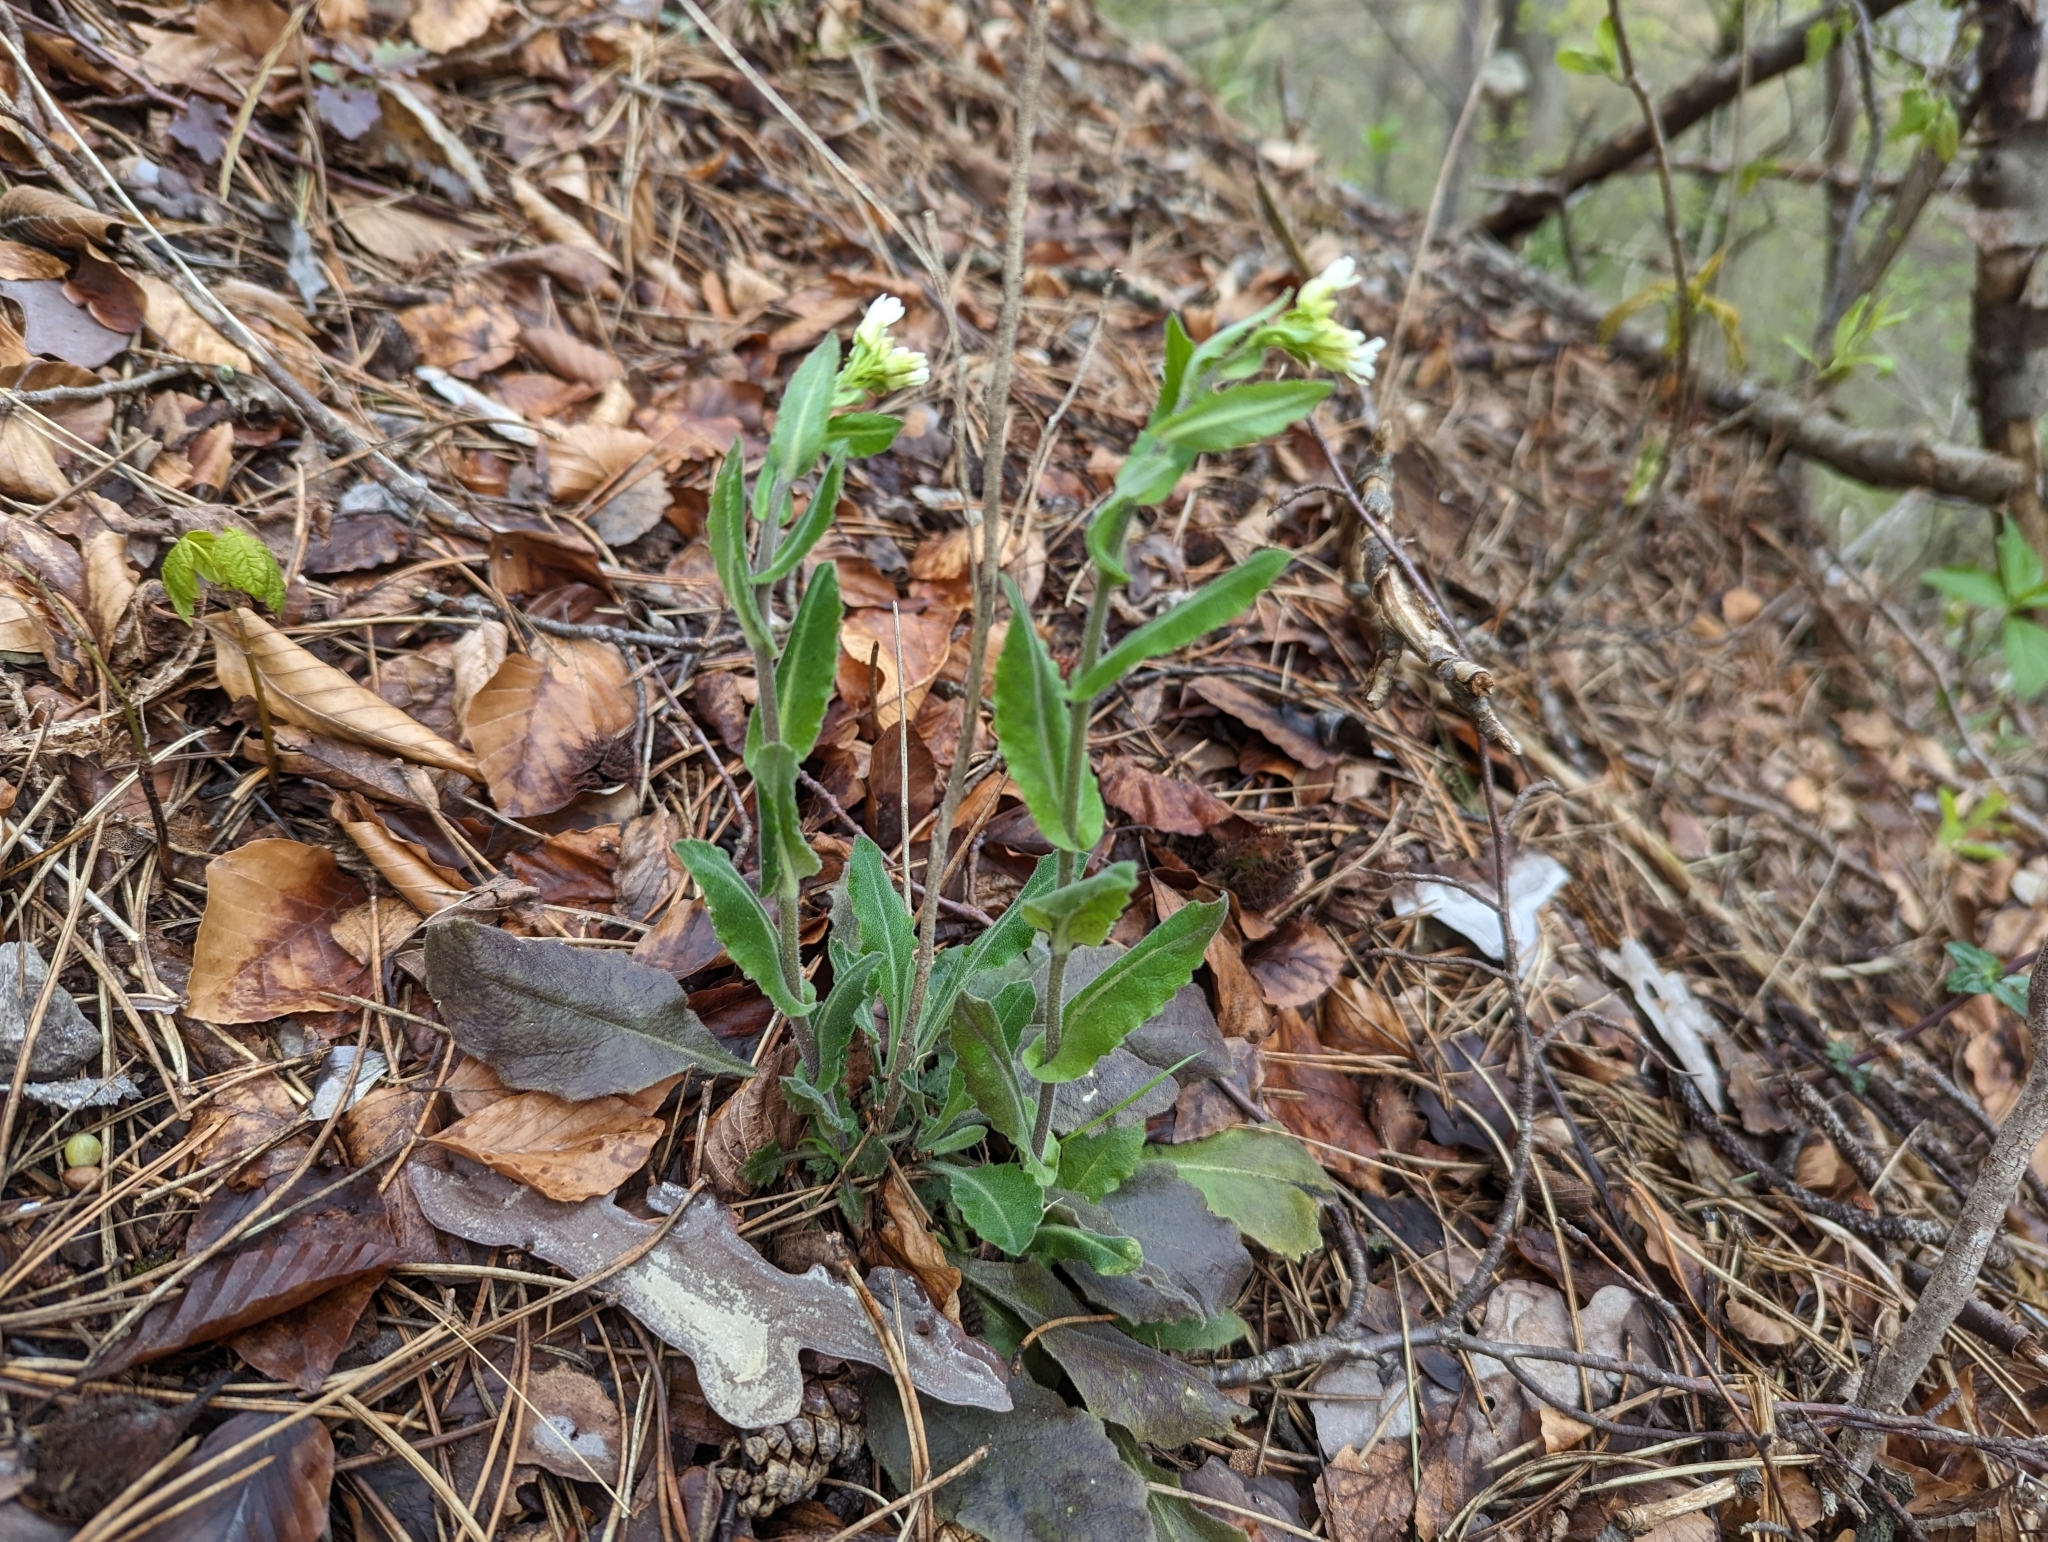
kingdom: Plantae
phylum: Tracheophyta
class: Magnoliopsida
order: Brassicales
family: Brassicaceae
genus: Pseudoturritis
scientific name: Pseudoturritis turrita
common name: Tower cress
